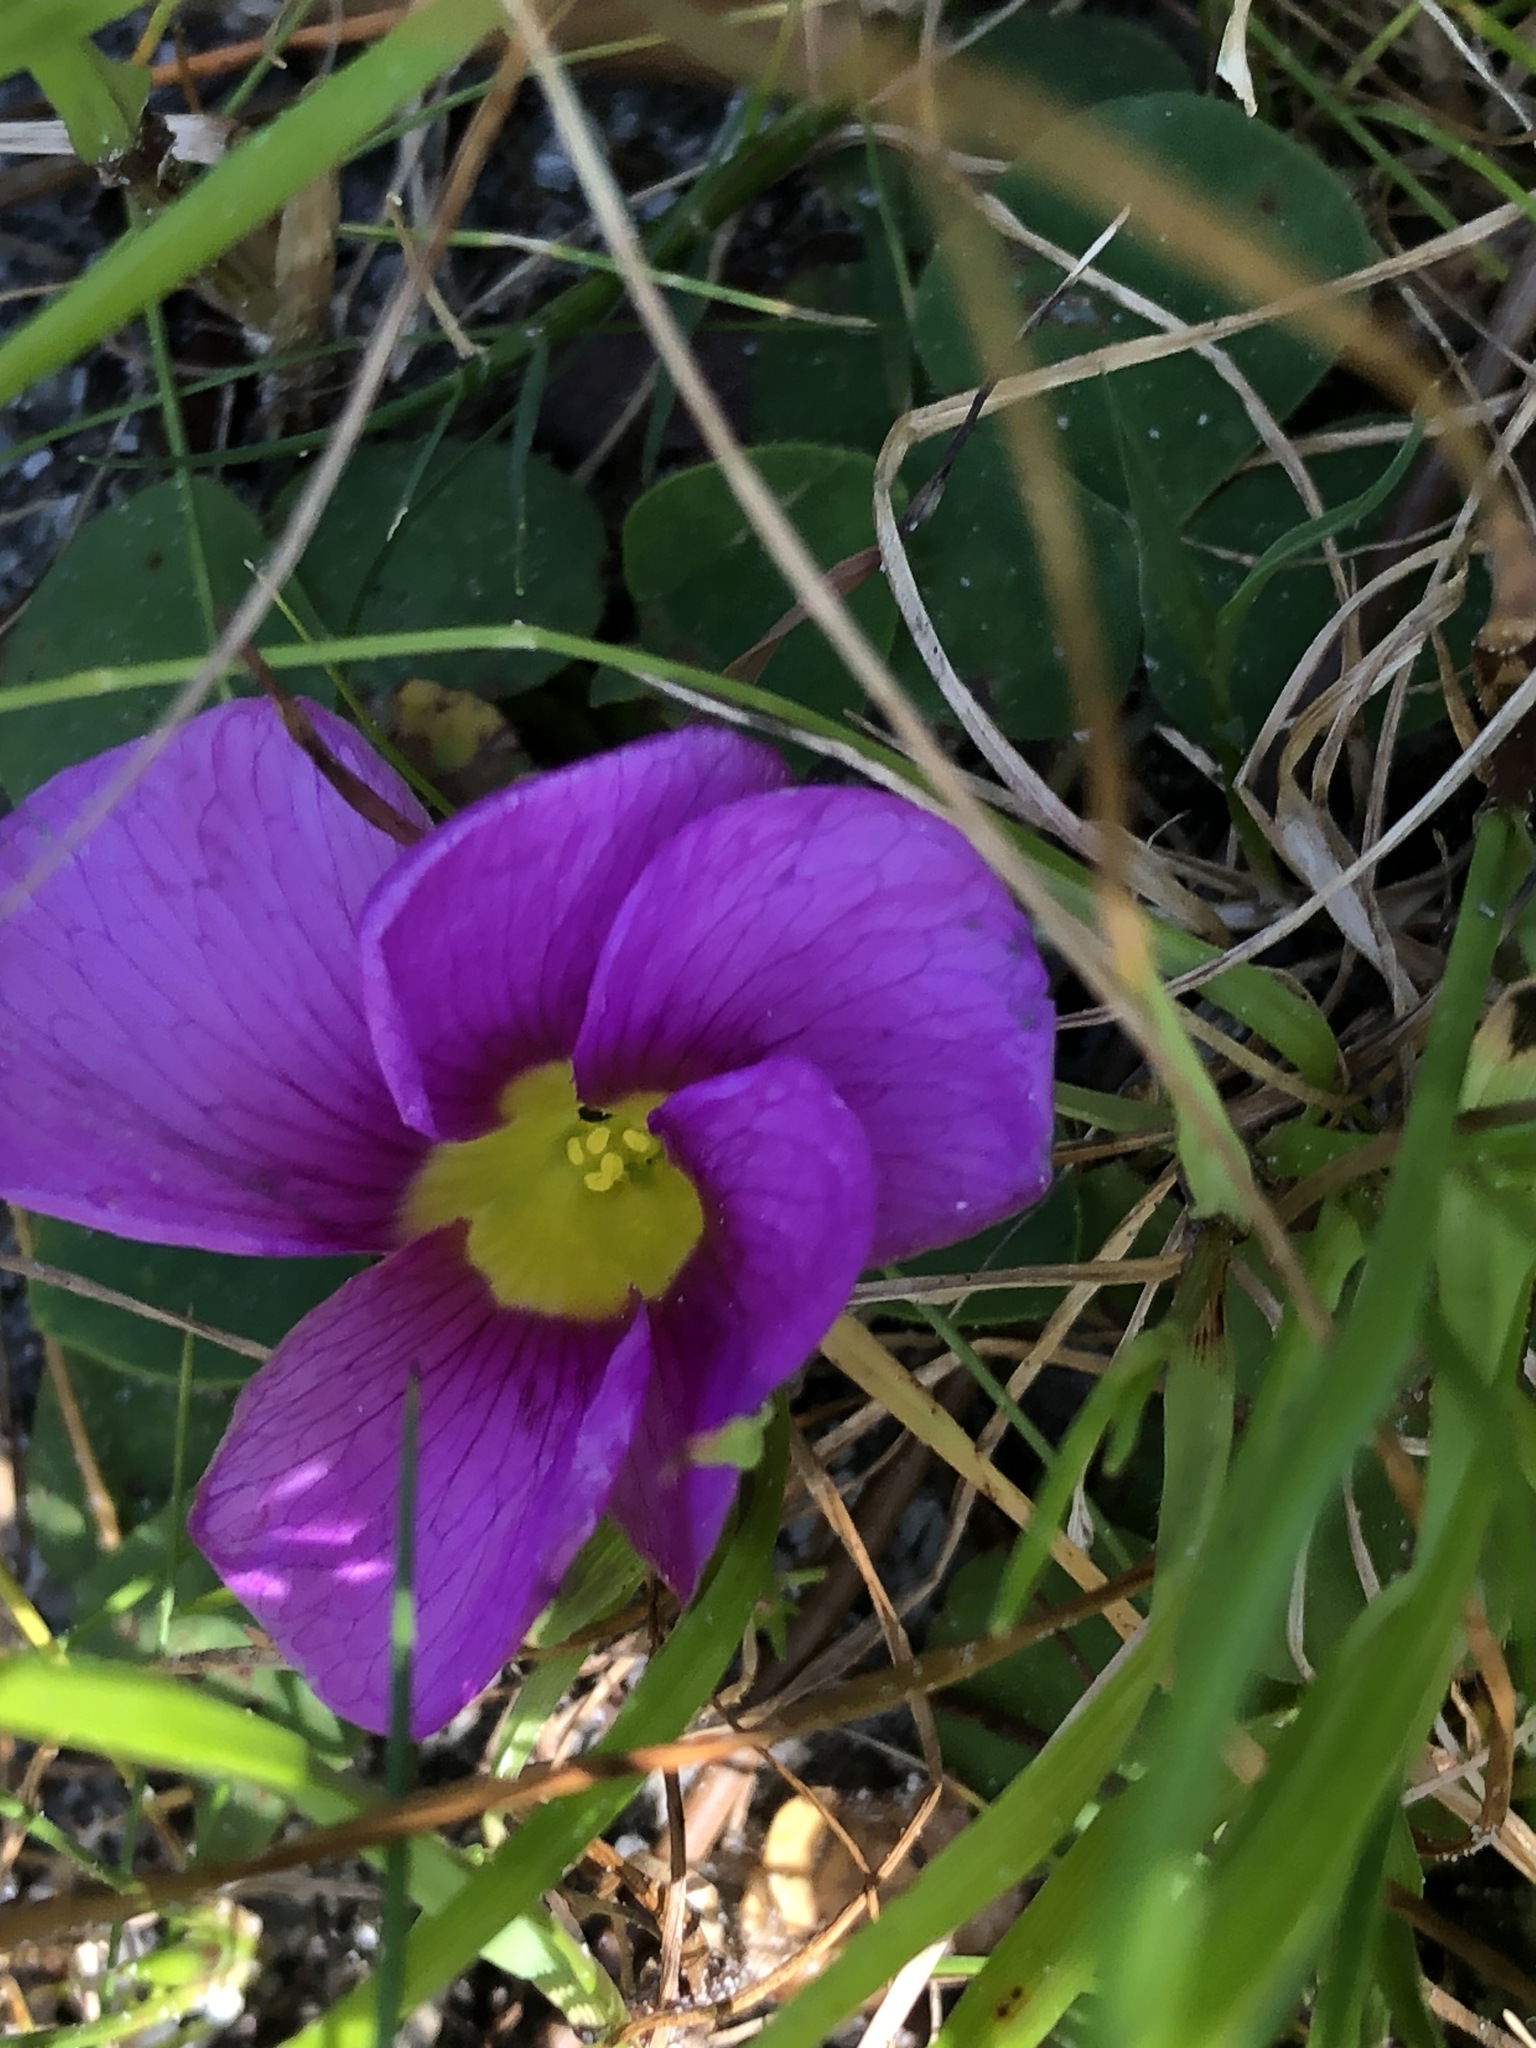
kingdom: Plantae
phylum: Tracheophyta
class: Magnoliopsida
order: Oxalidales
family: Oxalidaceae
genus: Oxalis
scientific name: Oxalis purpurea
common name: Purple woodsorrel
